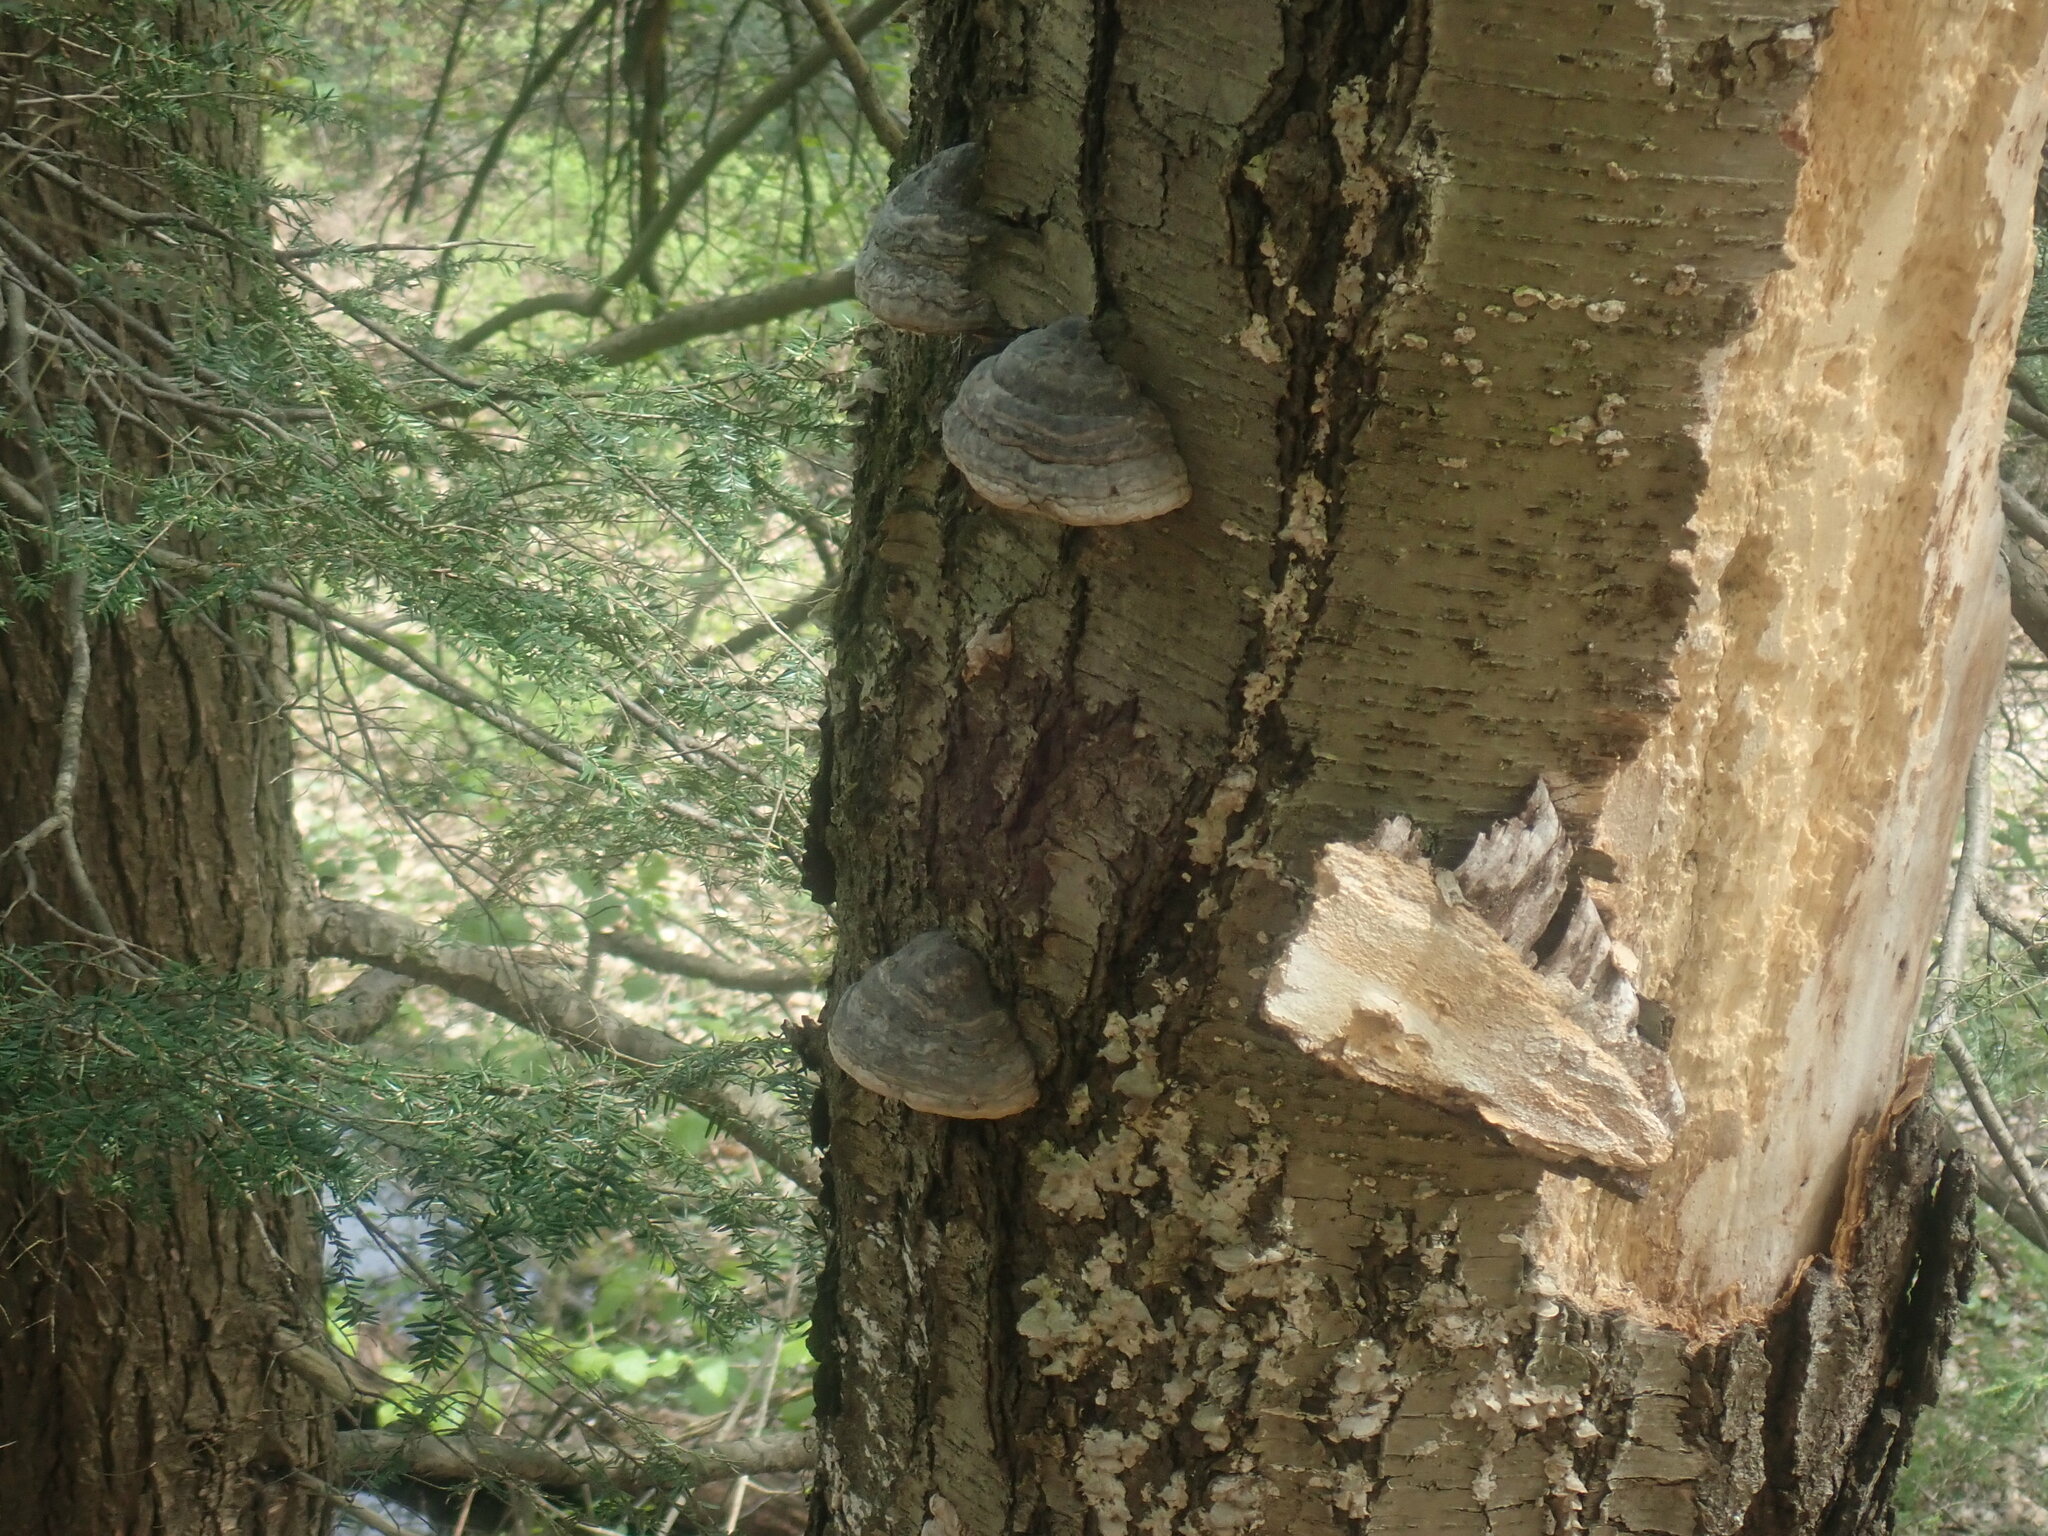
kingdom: Fungi
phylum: Basidiomycota
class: Agaricomycetes
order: Polyporales
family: Polyporaceae
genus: Fomes
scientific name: Fomes fomentarius
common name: Hoof fungus
